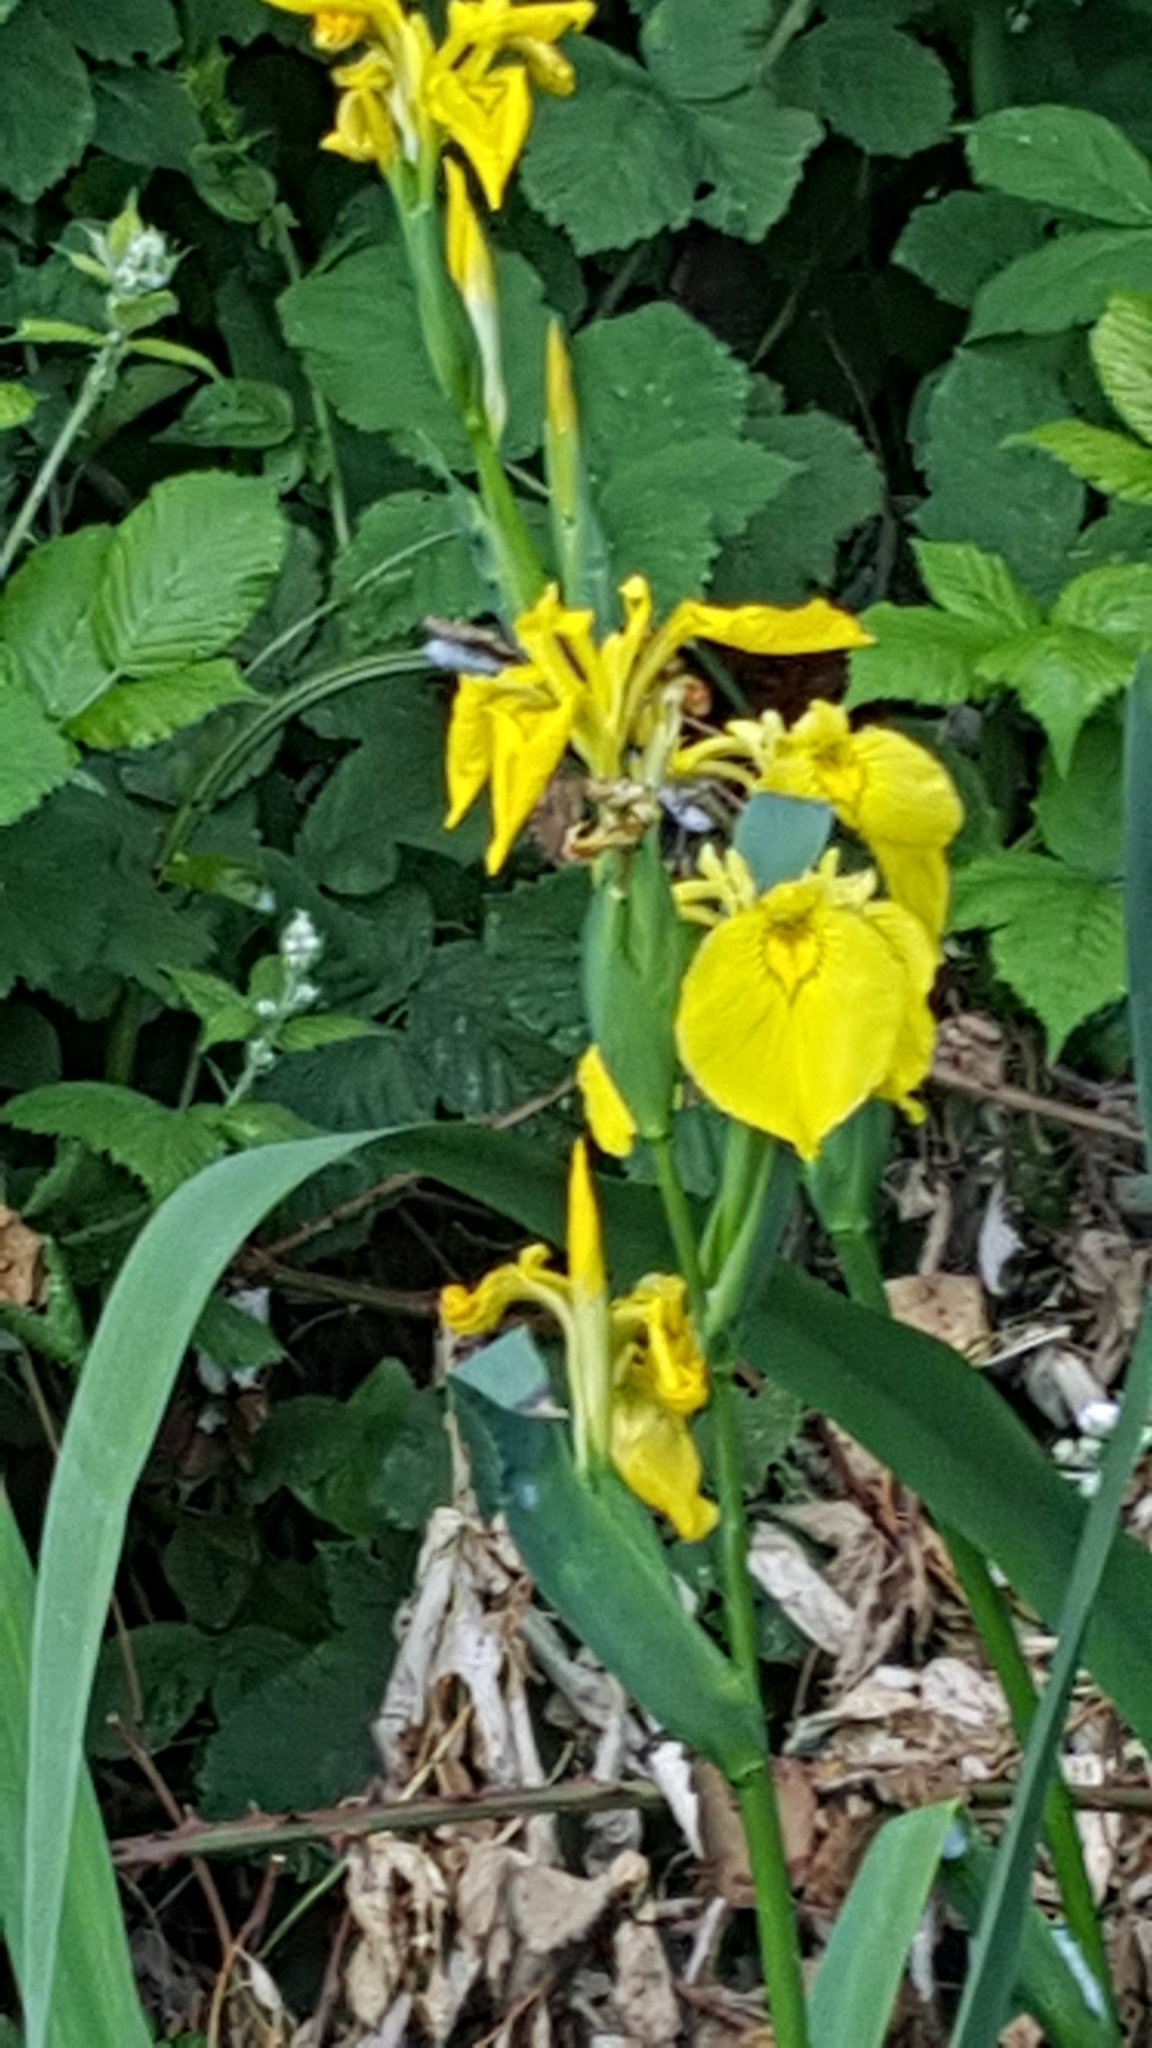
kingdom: Plantae
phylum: Tracheophyta
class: Liliopsida
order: Asparagales
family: Iridaceae
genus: Iris
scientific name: Iris pseudacorus
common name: Yellow flag
